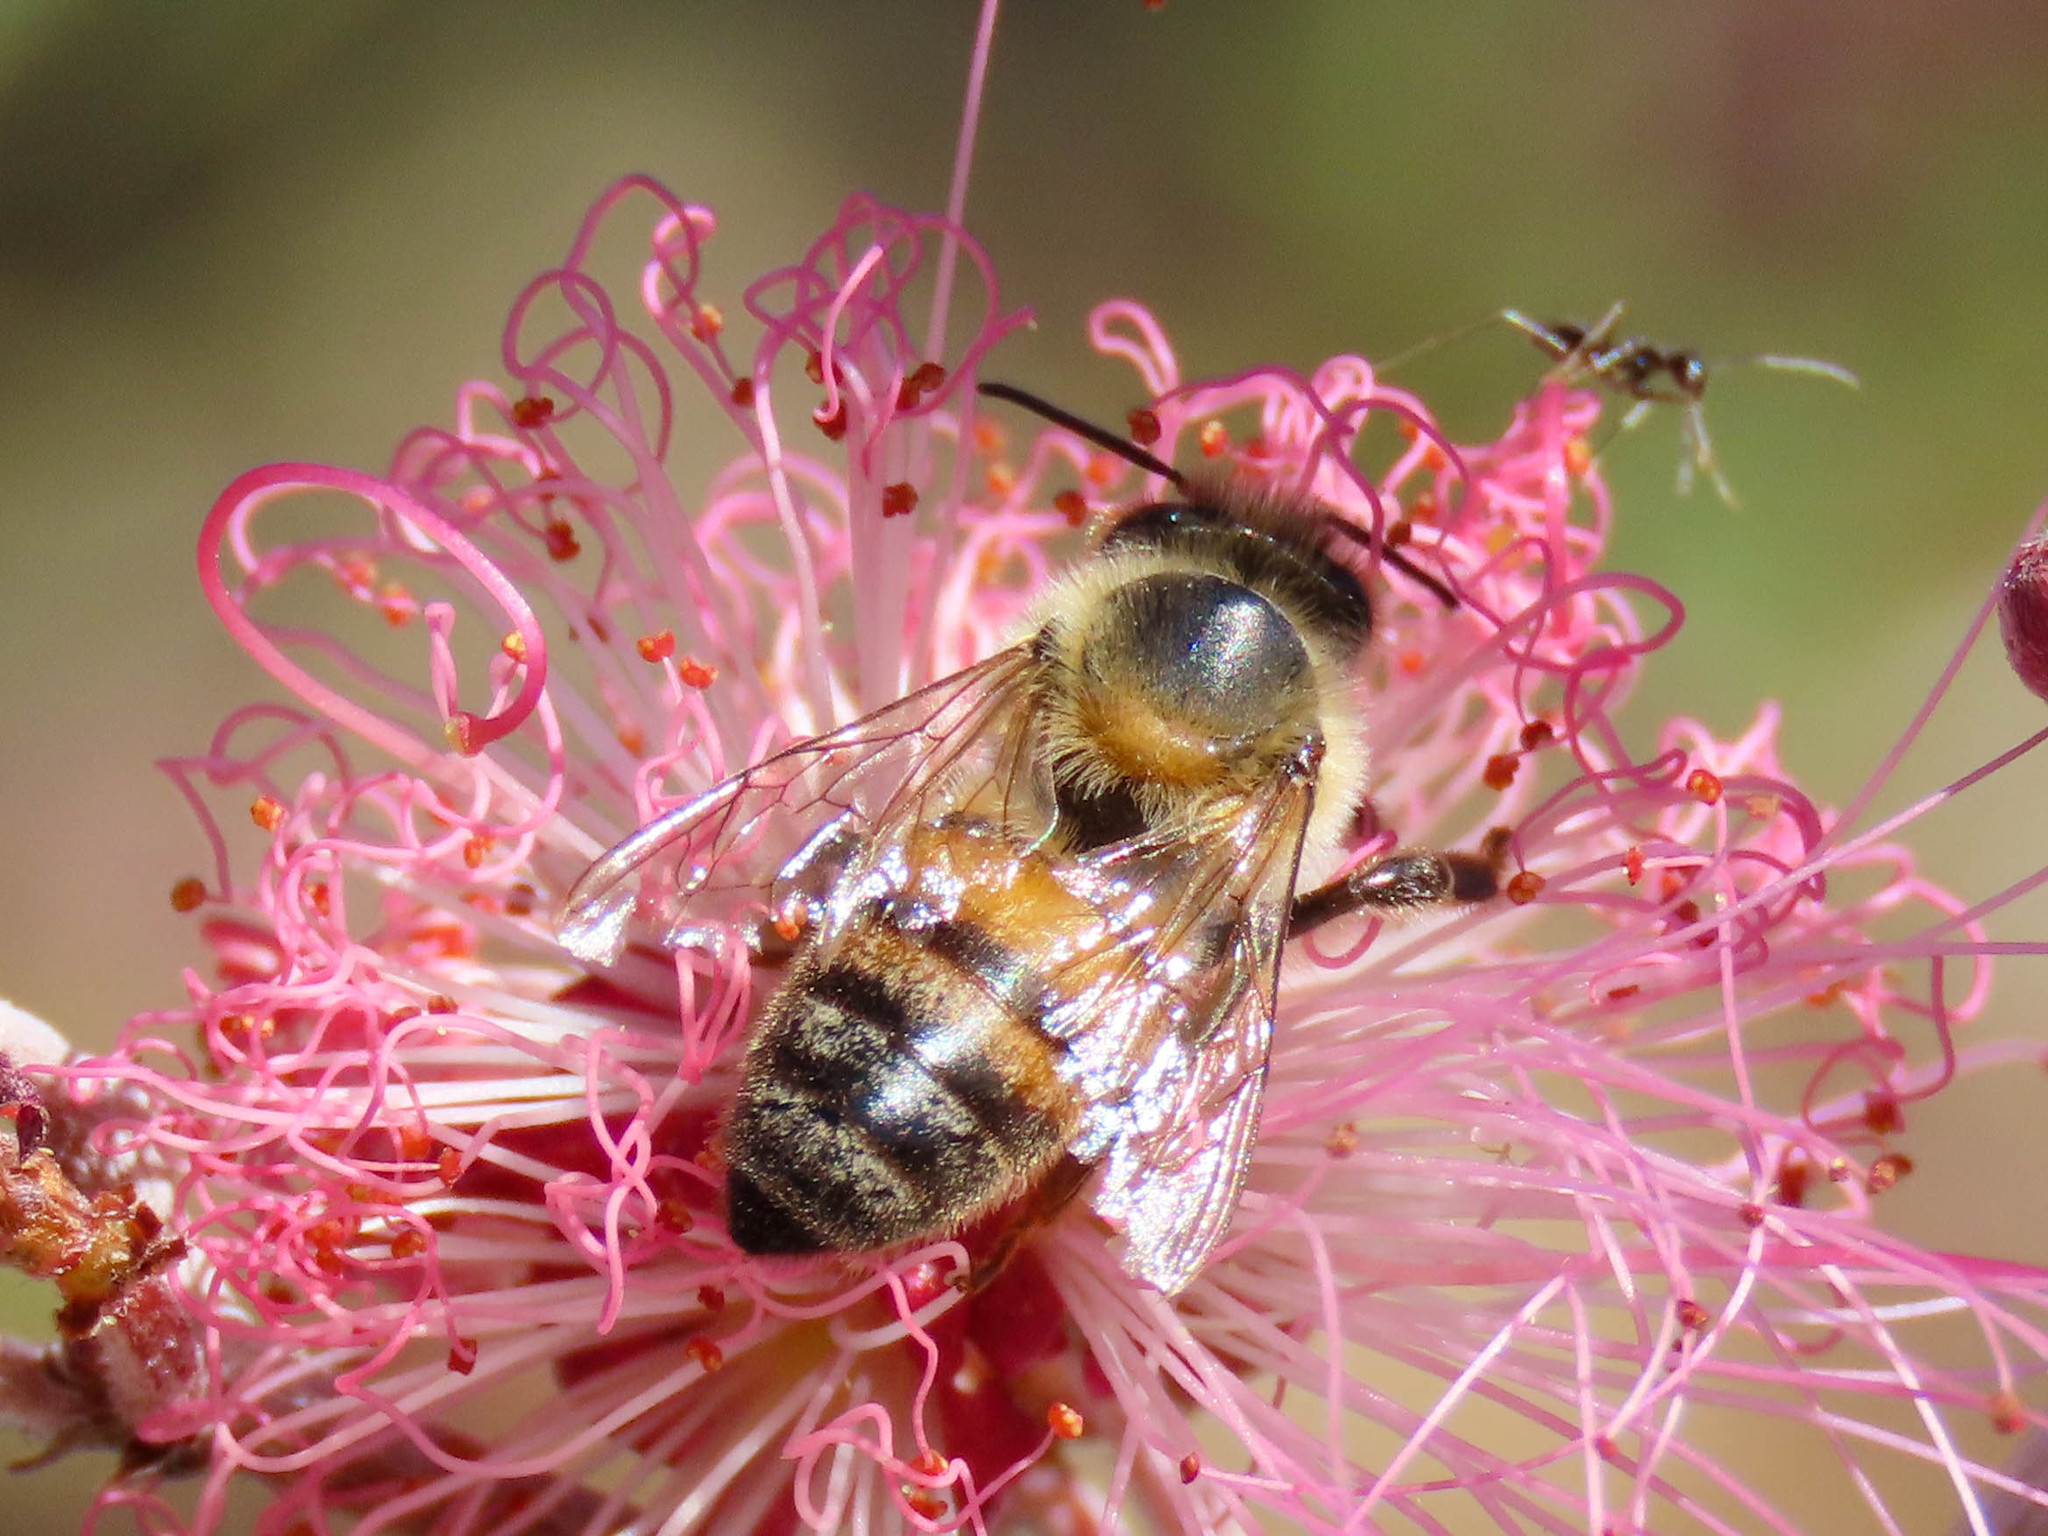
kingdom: Animalia
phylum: Arthropoda
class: Insecta
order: Hymenoptera
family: Apidae
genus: Apis
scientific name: Apis mellifera
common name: Honey bee
